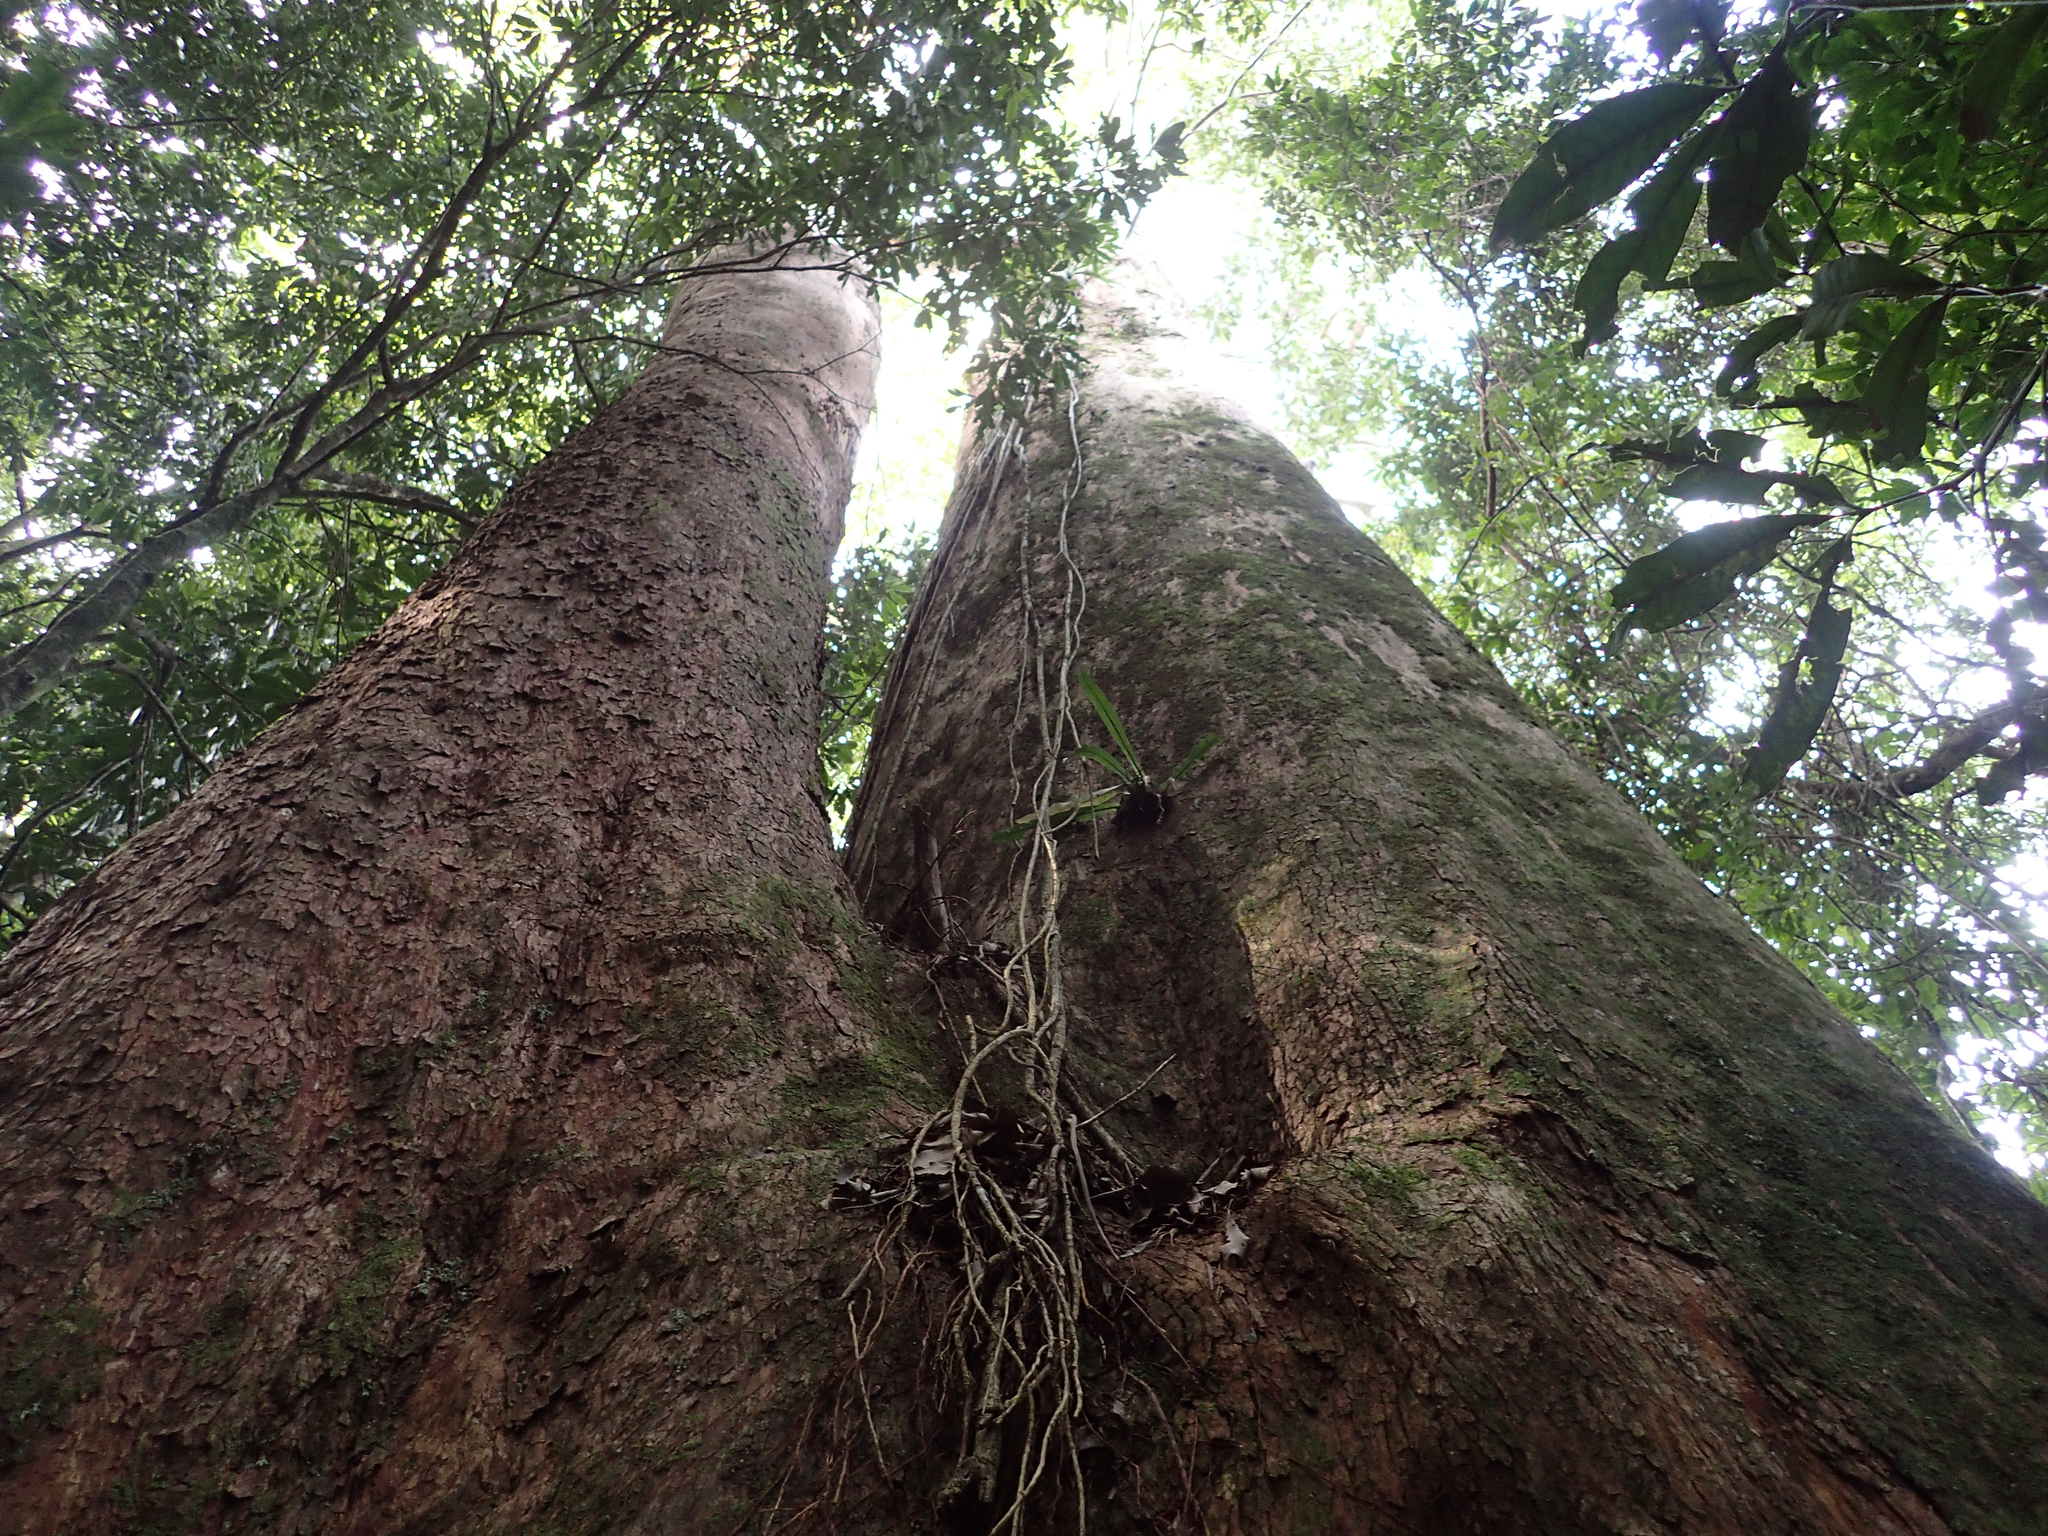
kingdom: Plantae
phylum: Tracheophyta
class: Magnoliopsida
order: Myrtales
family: Myrtaceae
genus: Lophostemon
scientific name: Lophostemon confertus
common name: Brisbane box
